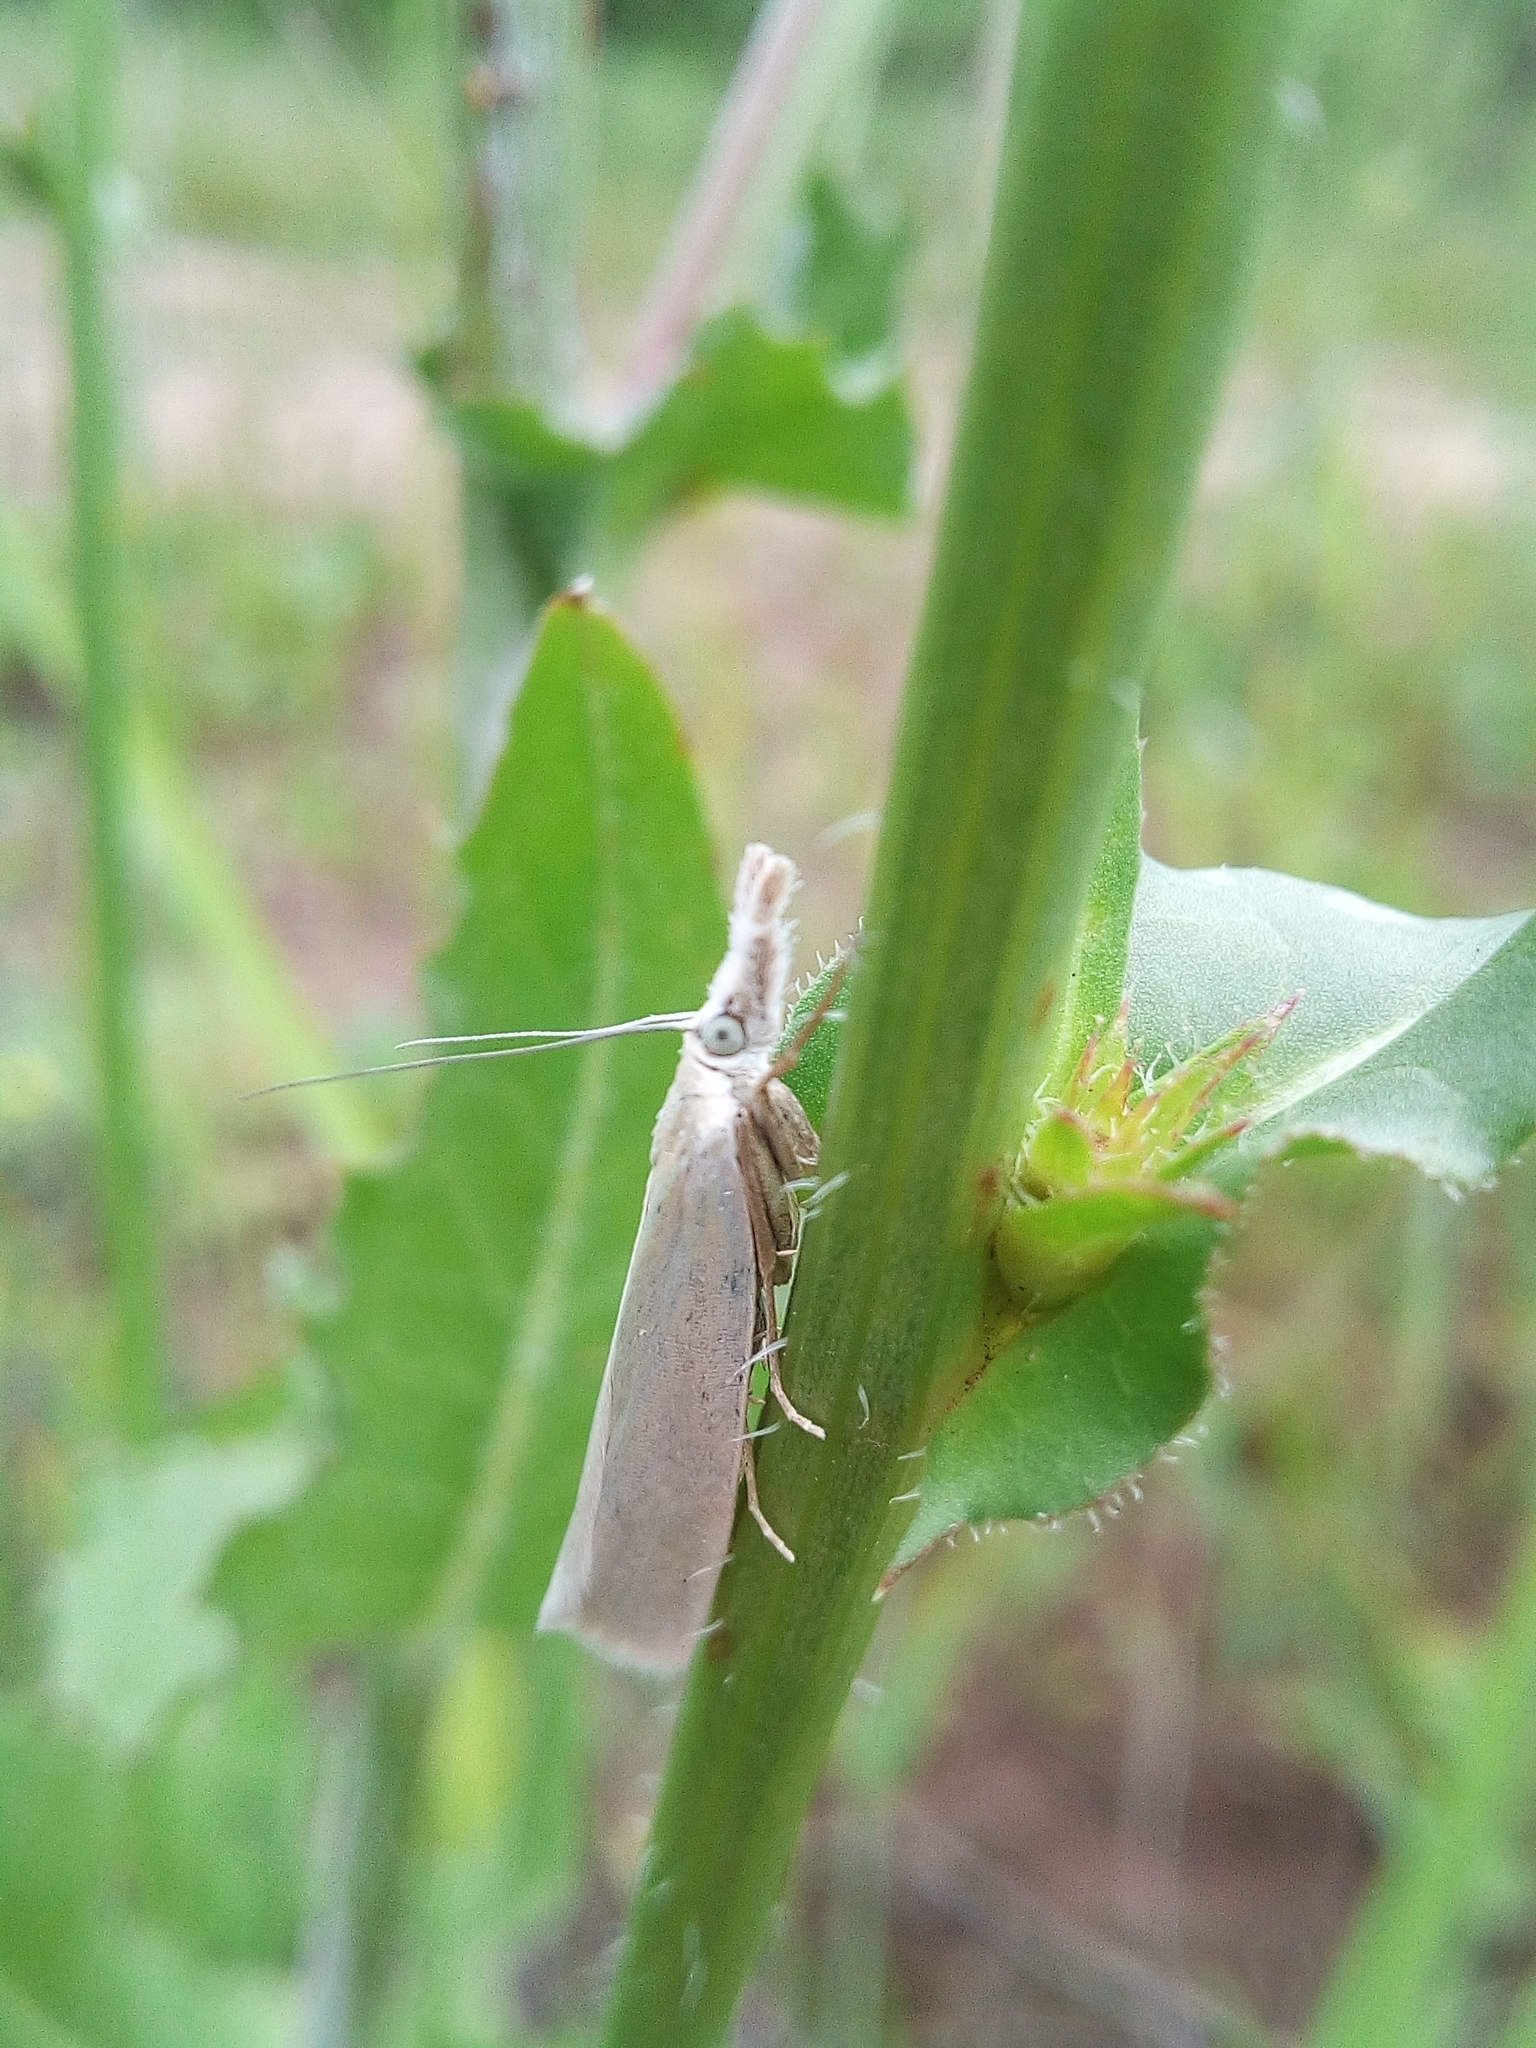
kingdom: Animalia
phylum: Arthropoda
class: Insecta
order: Lepidoptera
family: Crambidae
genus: Crambus
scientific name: Crambus perlellus
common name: Yellow satin veneer
